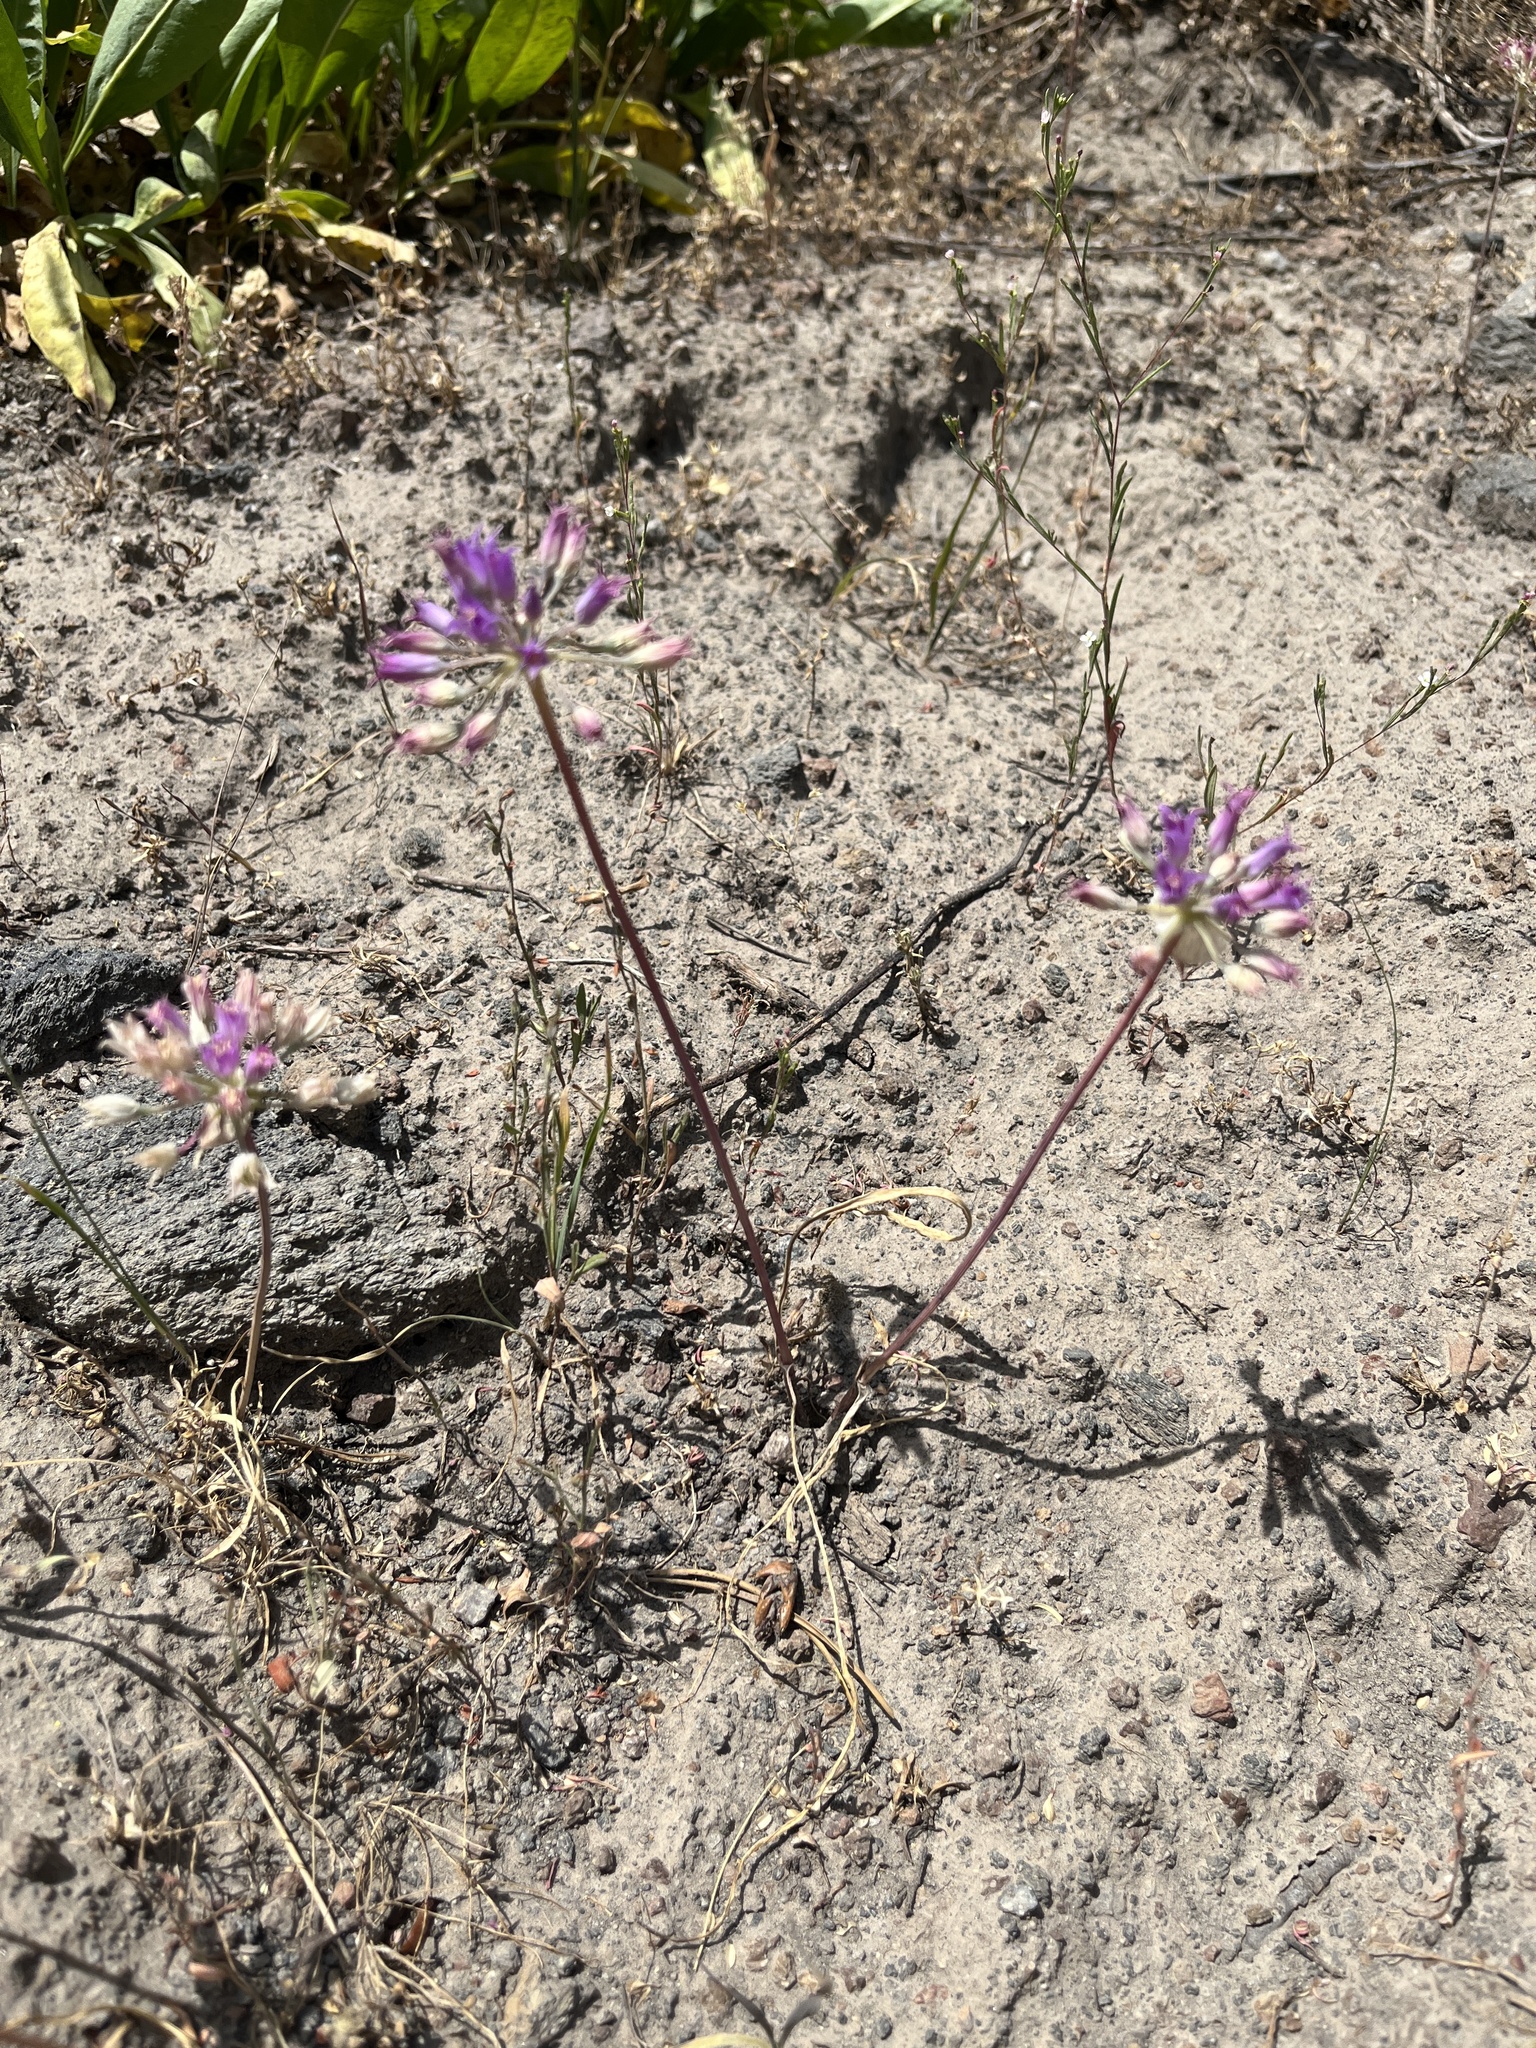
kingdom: Plantae
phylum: Tracheophyta
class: Liliopsida
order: Asparagales
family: Amaryllidaceae
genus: Allium
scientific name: Allium acuminatum
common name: Hooker's onion
